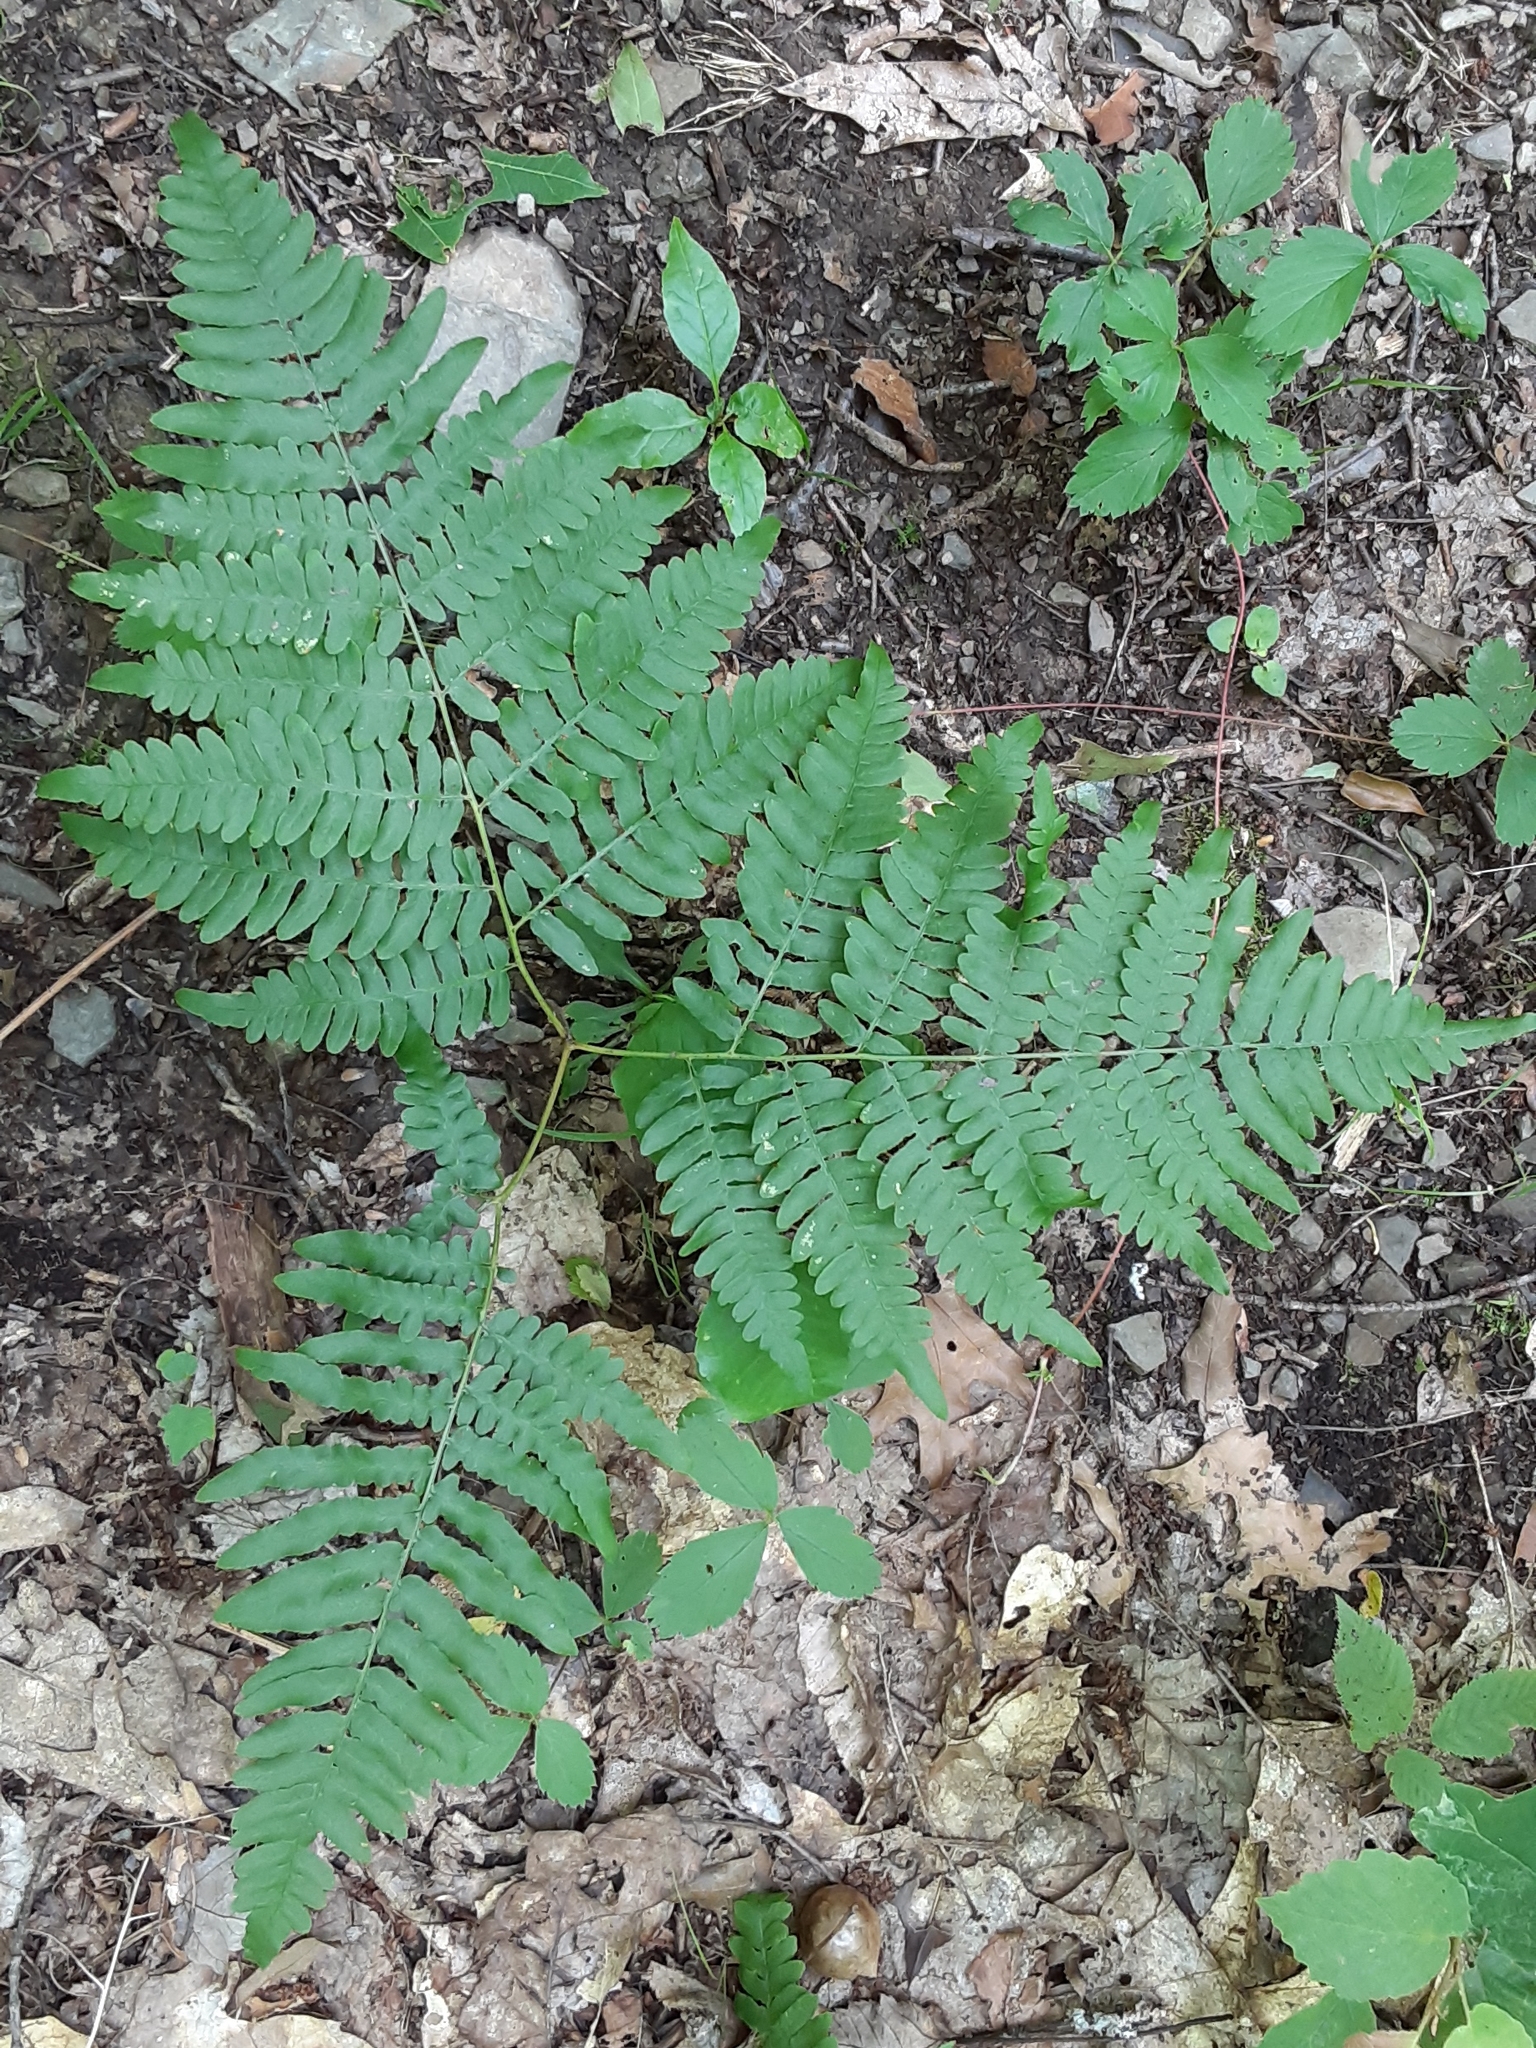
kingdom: Plantae
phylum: Tracheophyta
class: Polypodiopsida
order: Polypodiales
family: Dennstaedtiaceae
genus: Pteridium
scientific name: Pteridium aquilinum
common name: Bracken
